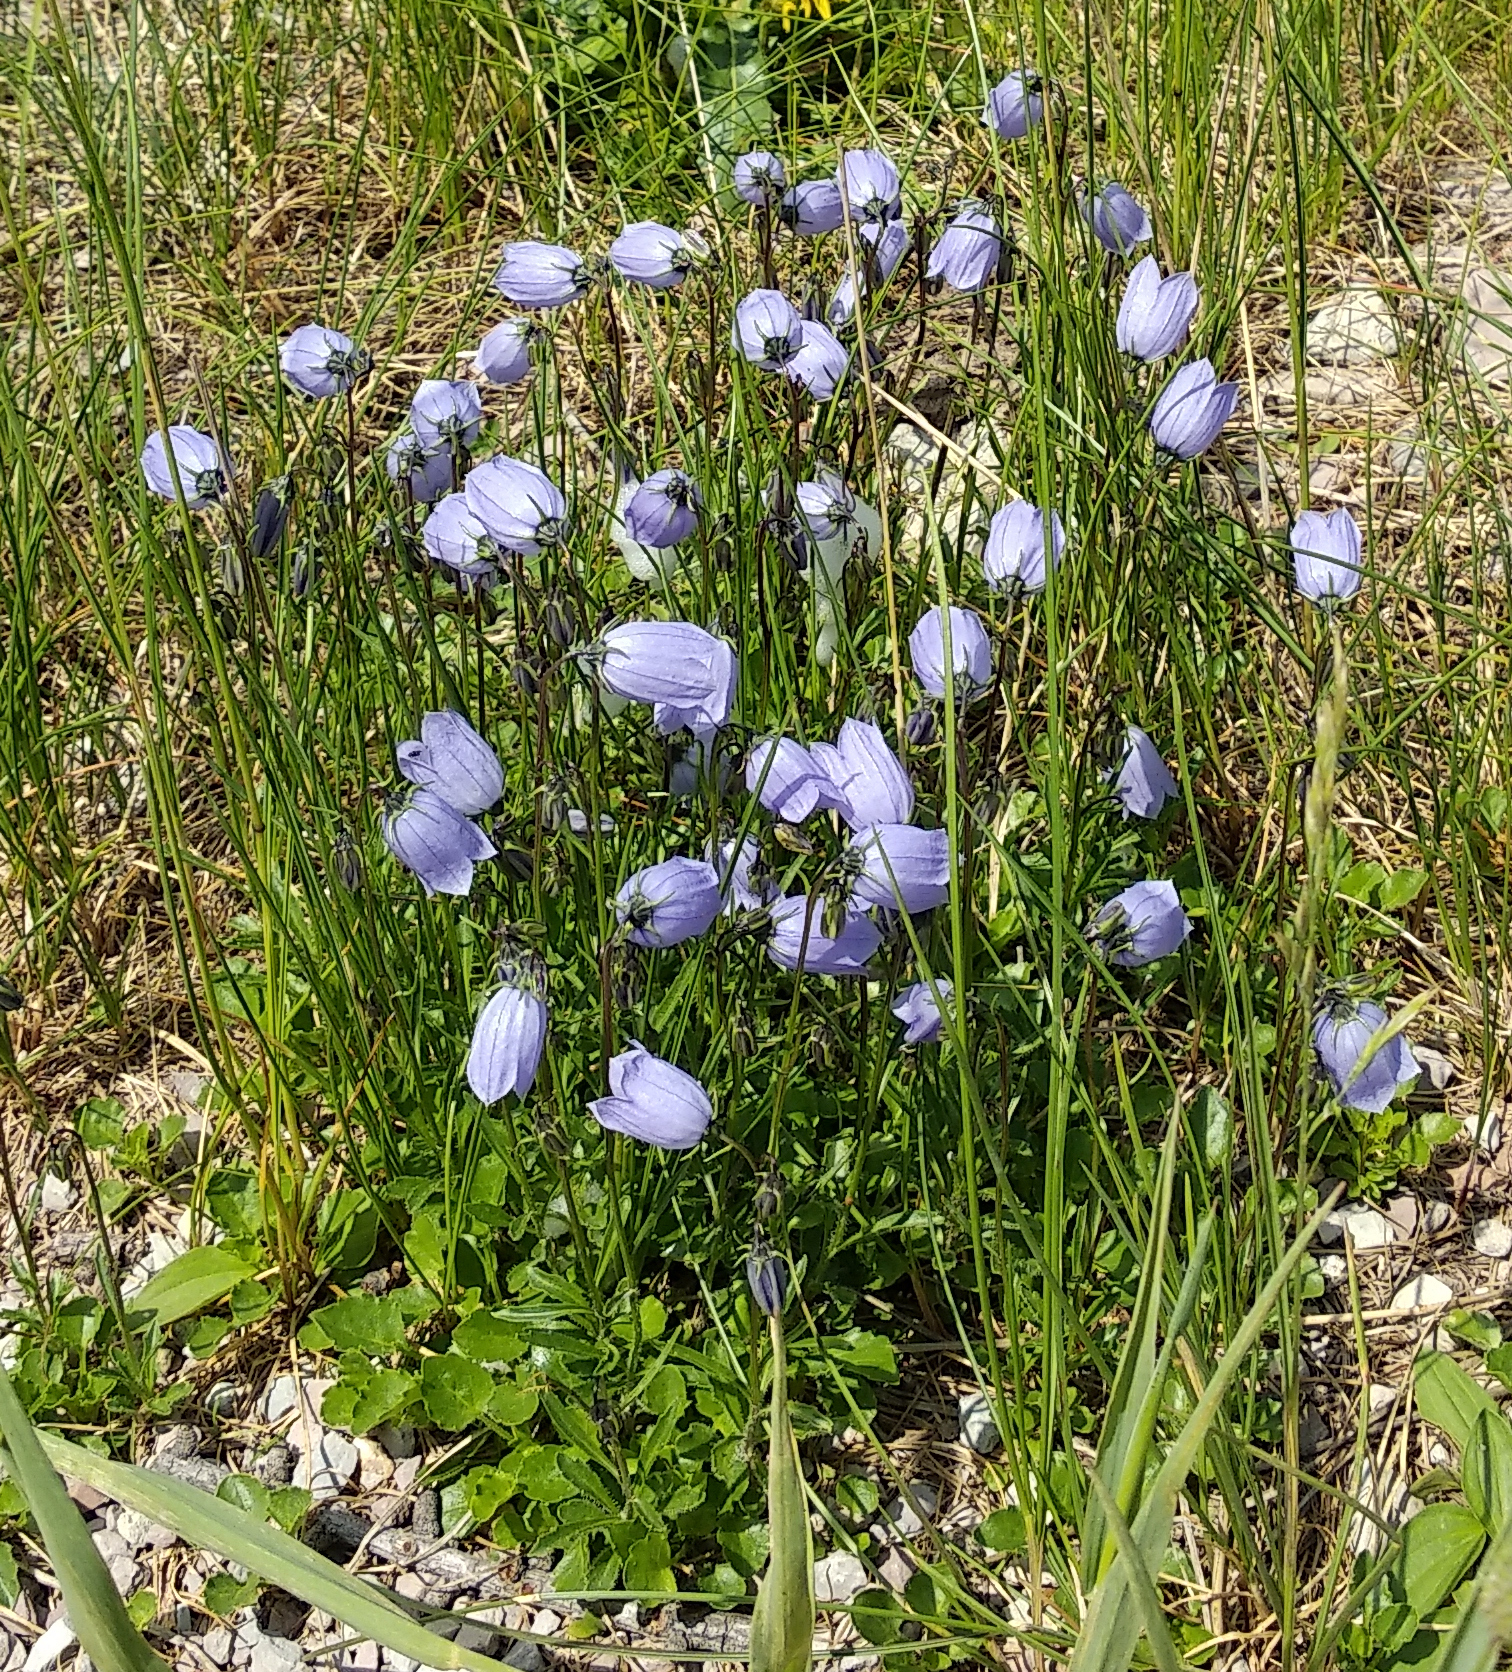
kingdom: Plantae
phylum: Tracheophyta
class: Magnoliopsida
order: Asterales
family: Campanulaceae
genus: Campanula
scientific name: Campanula cochleariifolia
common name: Fairies'-thimbles
